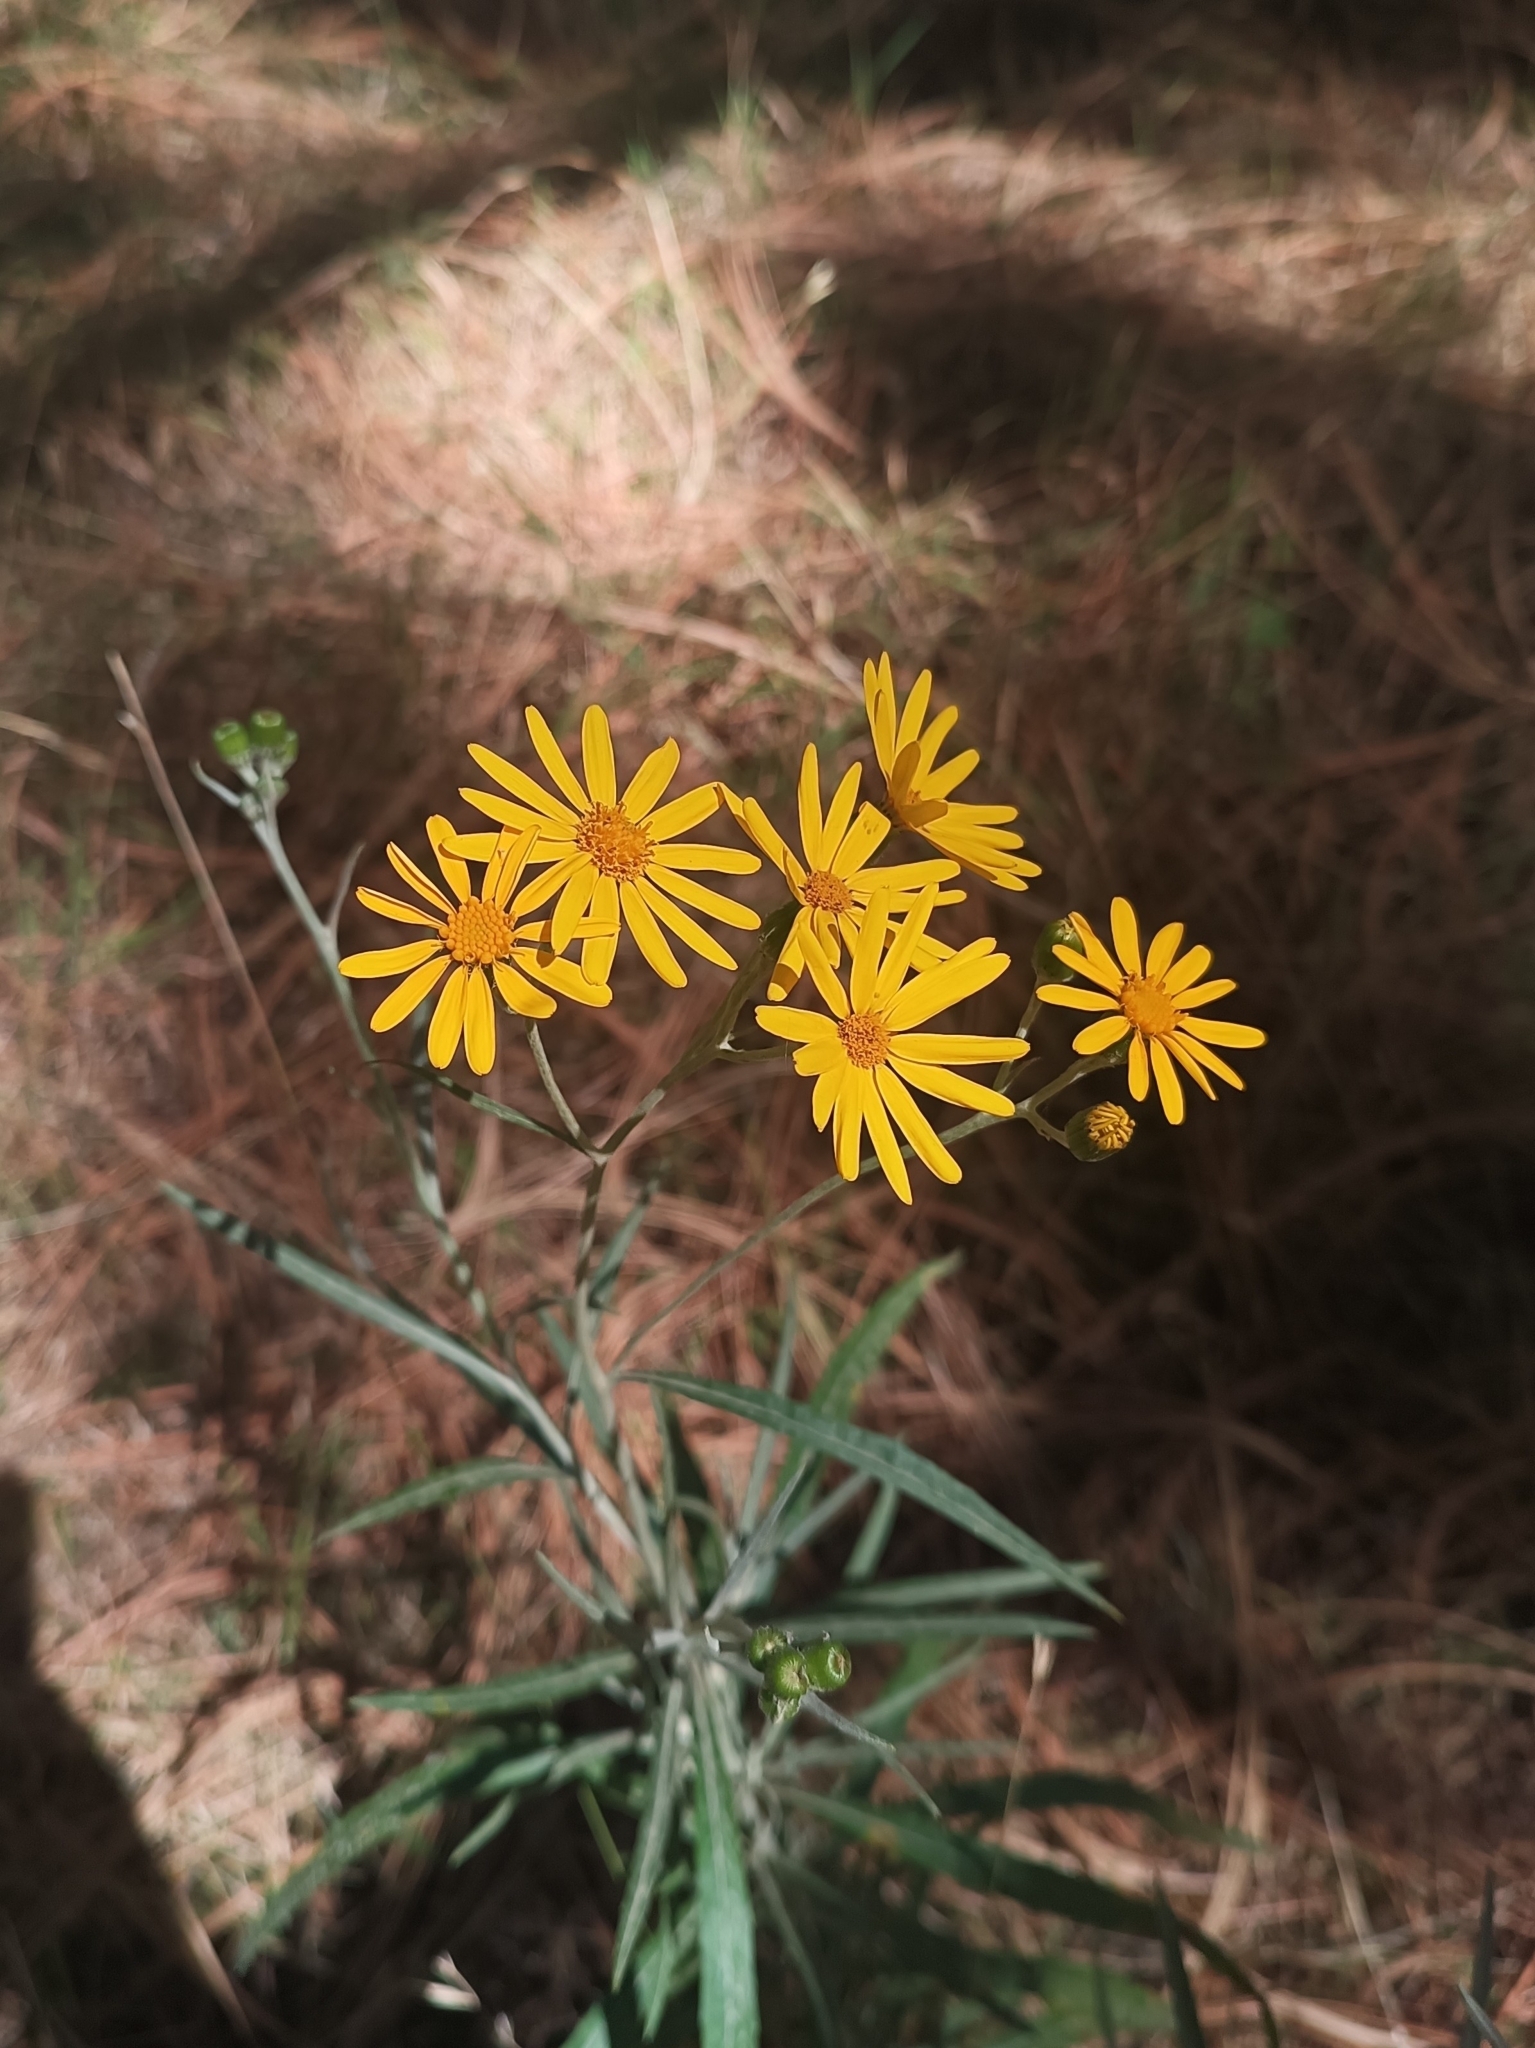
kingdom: Plantae
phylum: Tracheophyta
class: Magnoliopsida
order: Asterales
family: Asteraceae
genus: Senecio
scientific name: Senecio stoechadiformis
